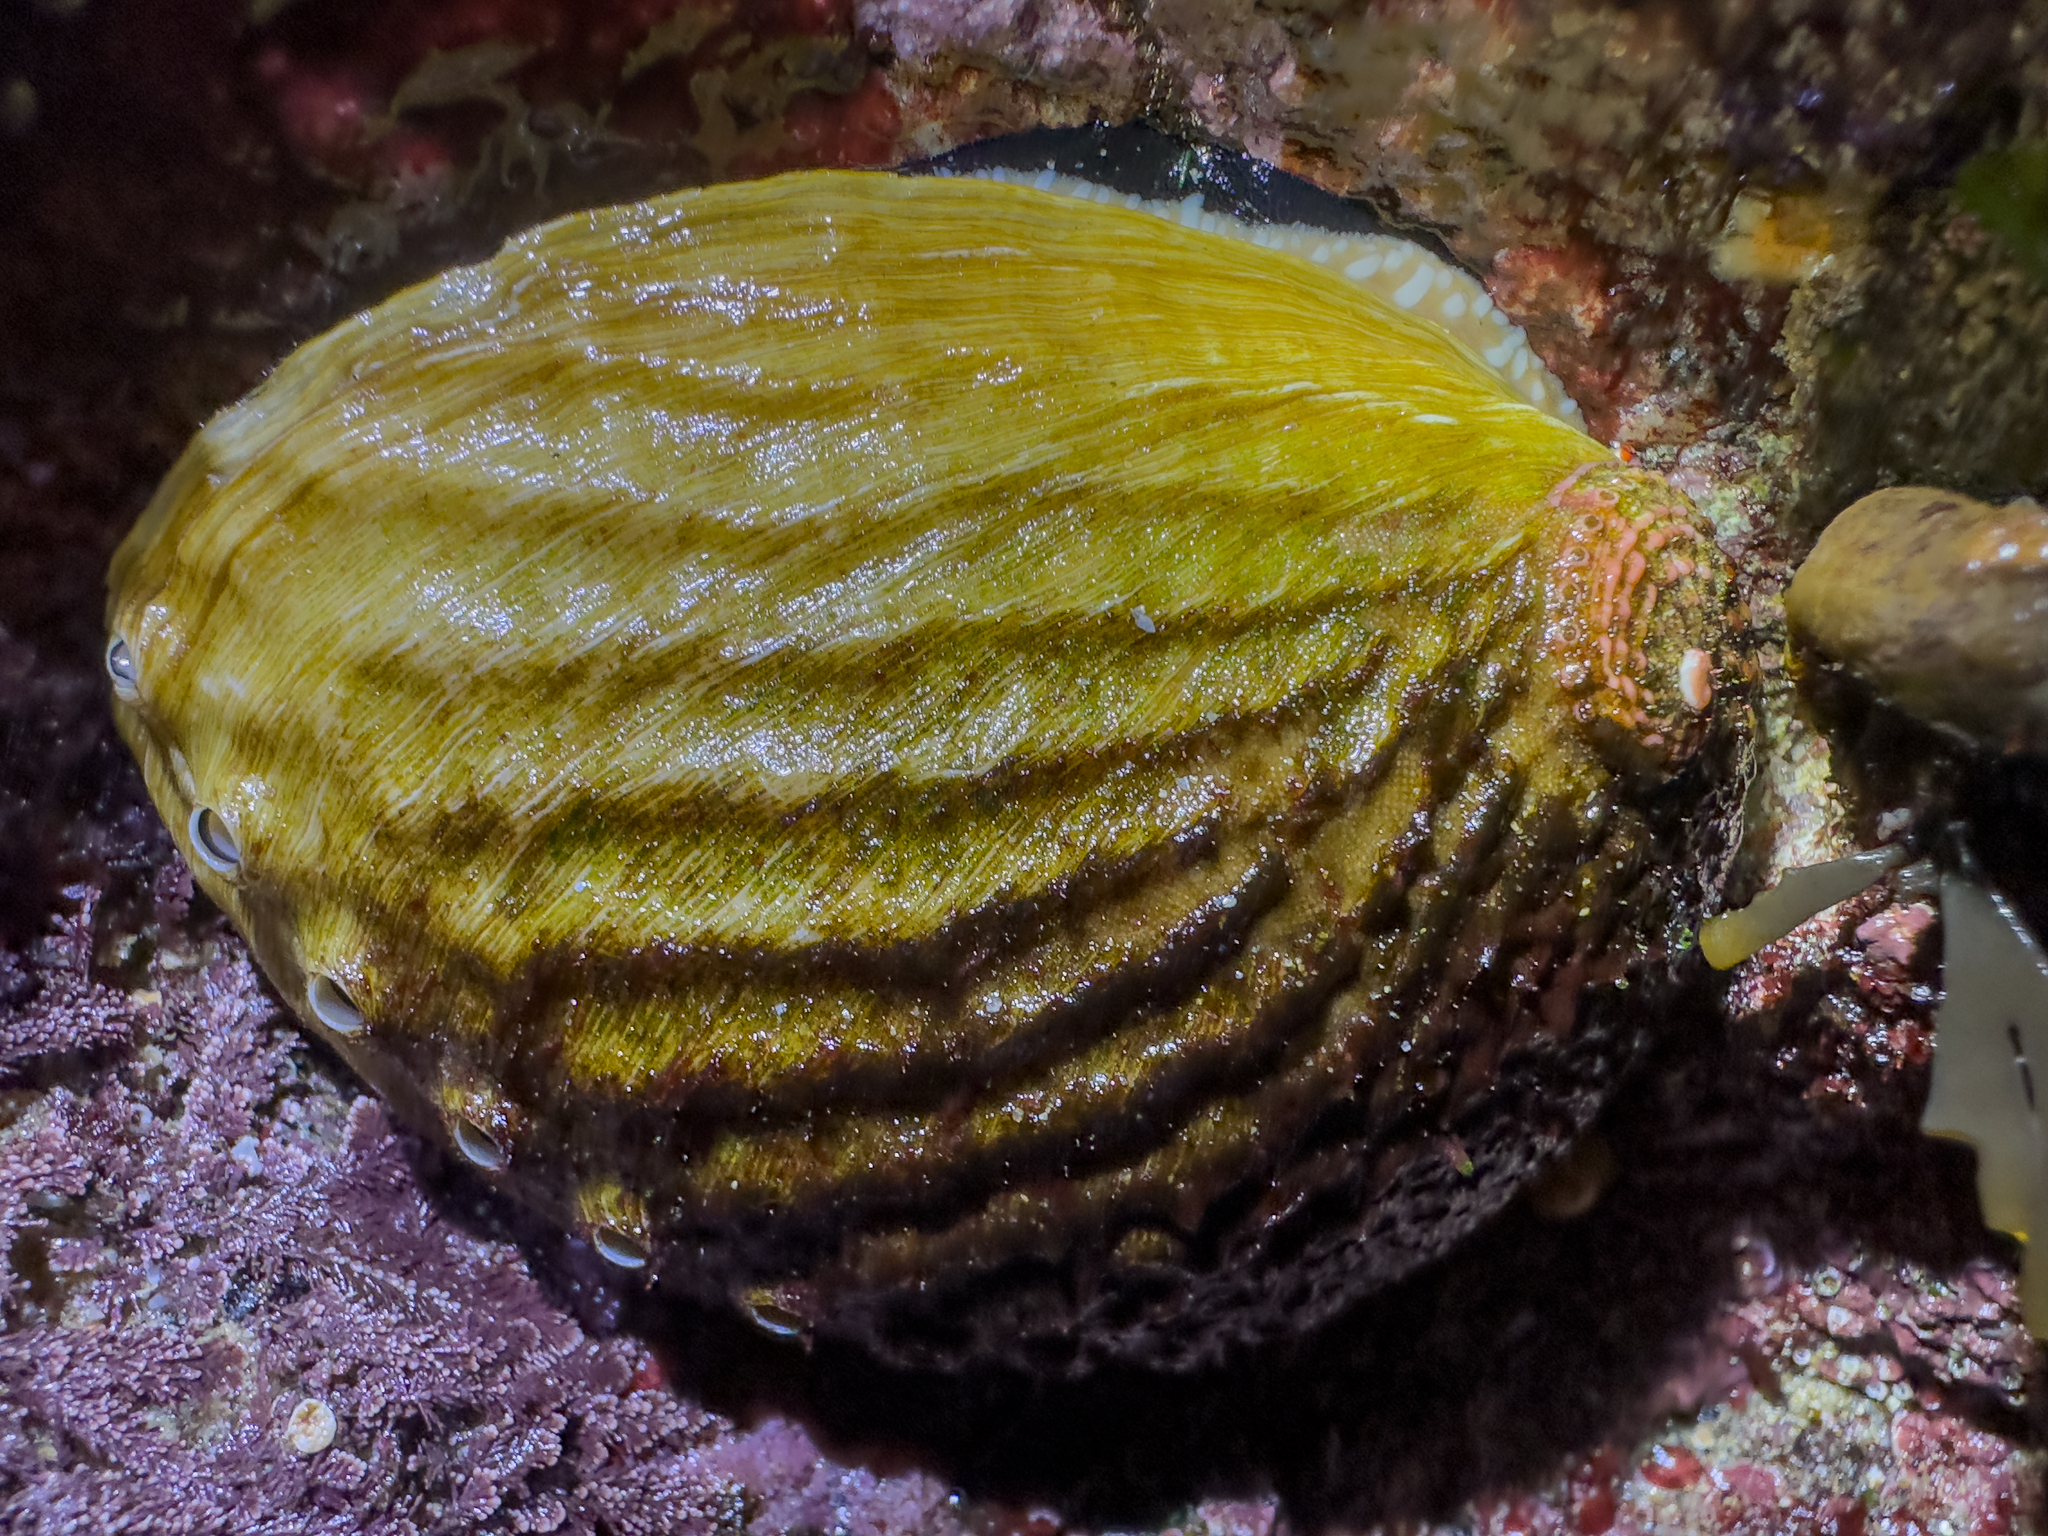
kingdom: Animalia
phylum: Mollusca
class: Gastropoda
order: Lepetellida
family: Haliotidae
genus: Haliotis
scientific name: Haliotis australis
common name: Silver abalone
